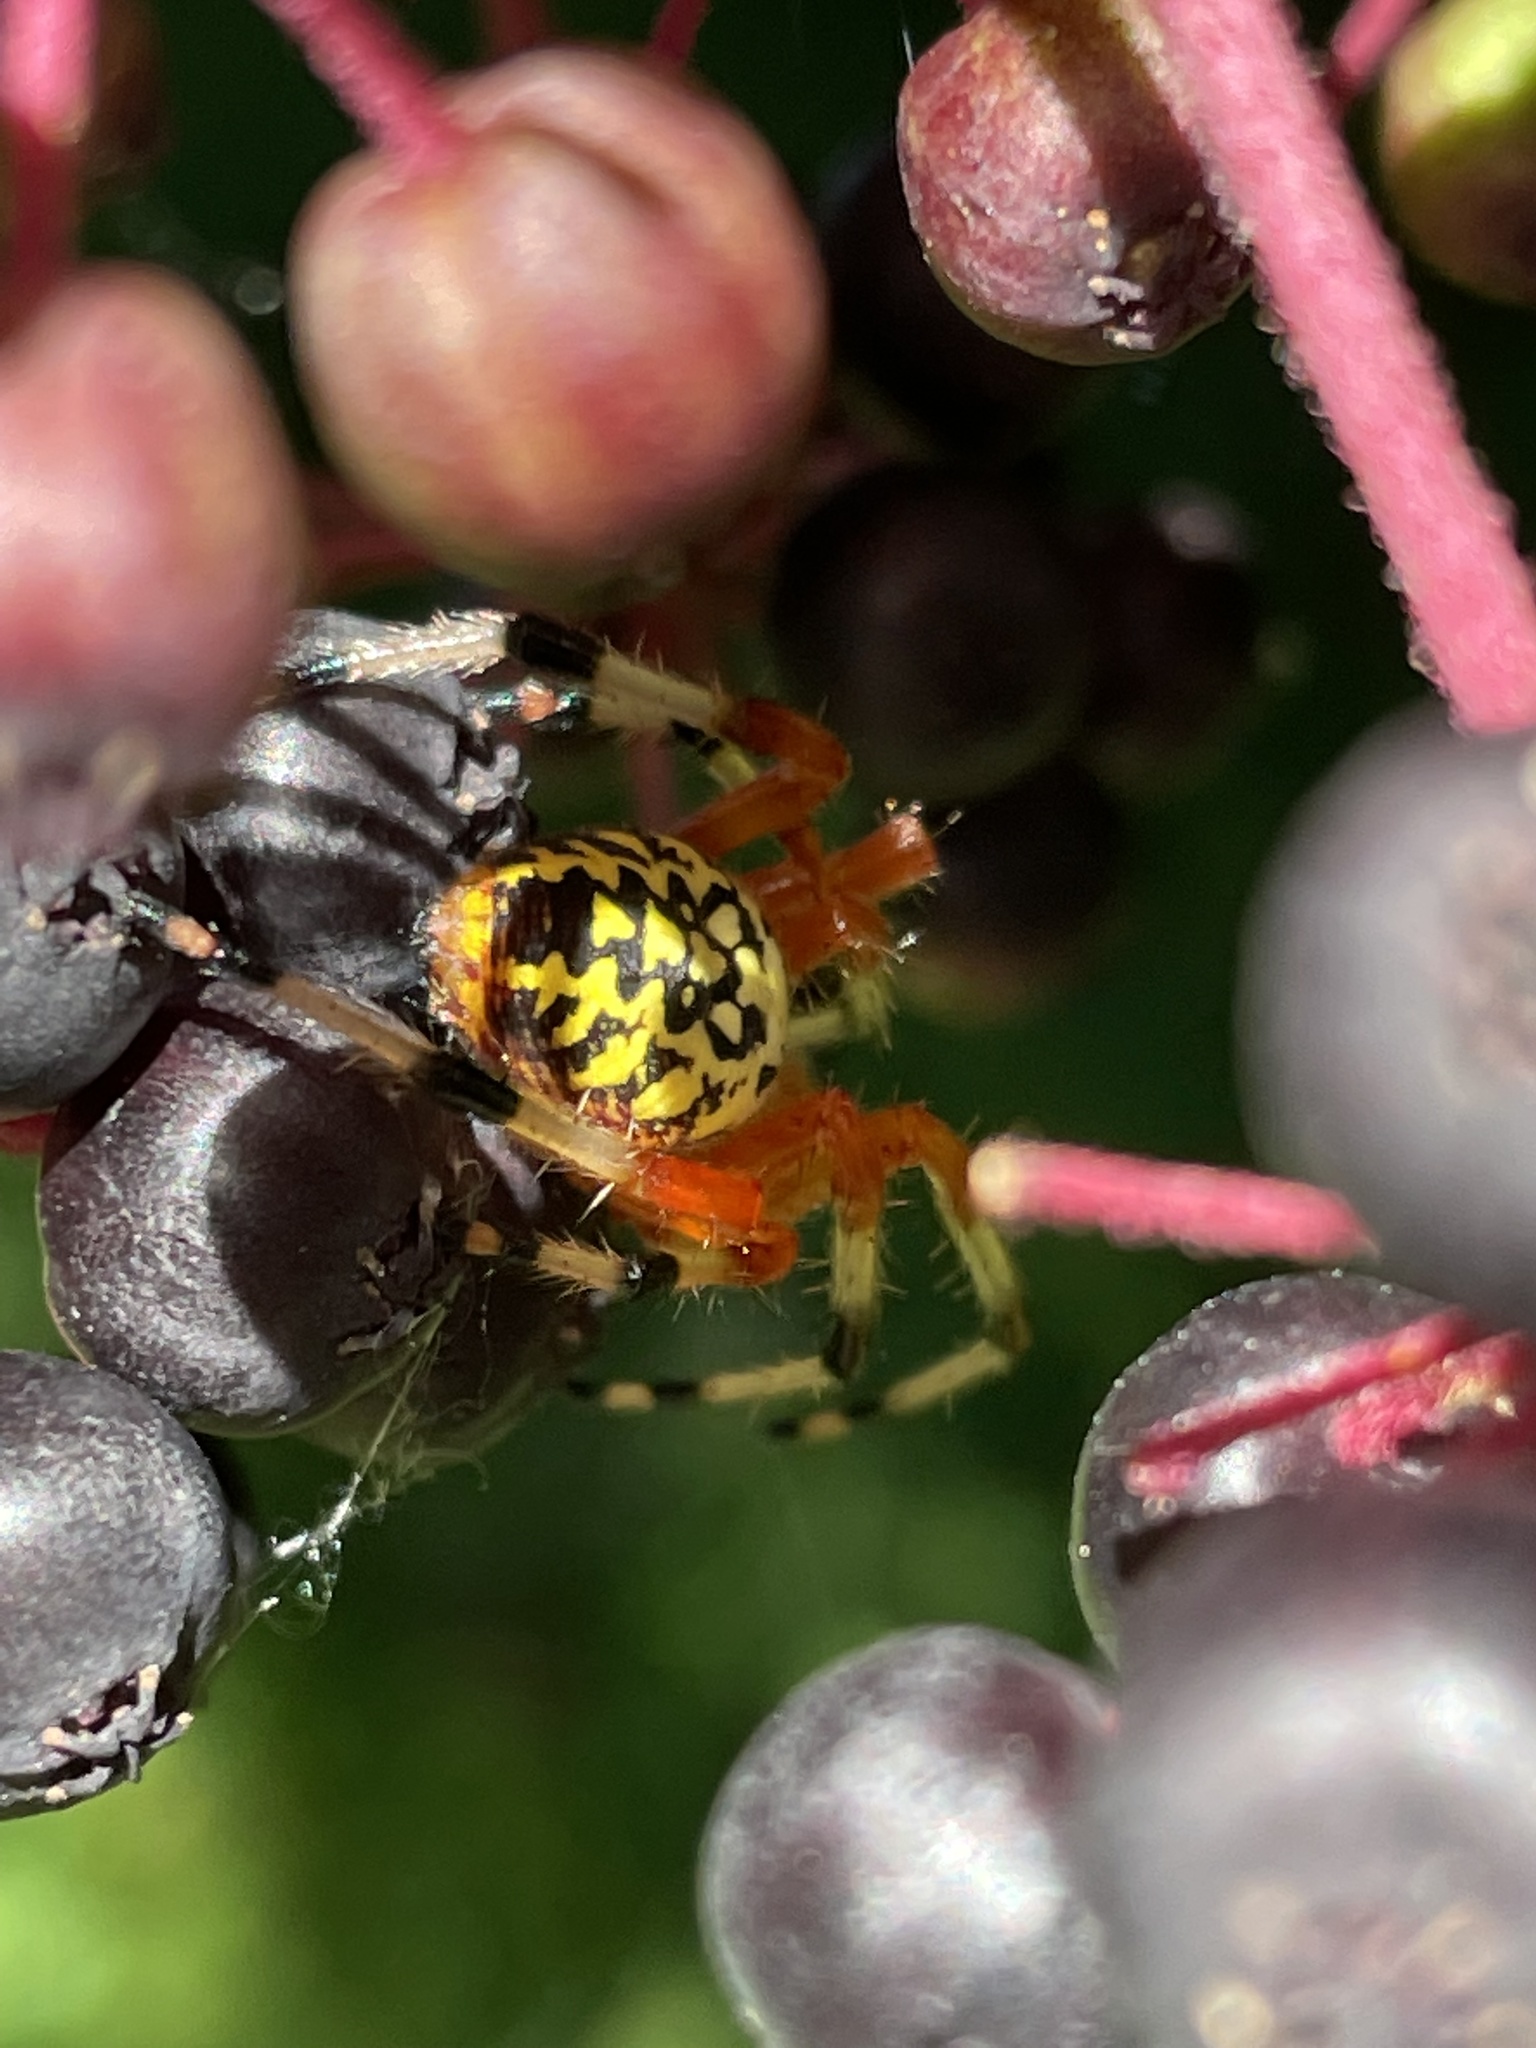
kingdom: Animalia
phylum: Arthropoda
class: Arachnida
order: Araneae
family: Araneidae
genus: Araneus
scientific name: Araneus marmoreus
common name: Marbled orbweaver
